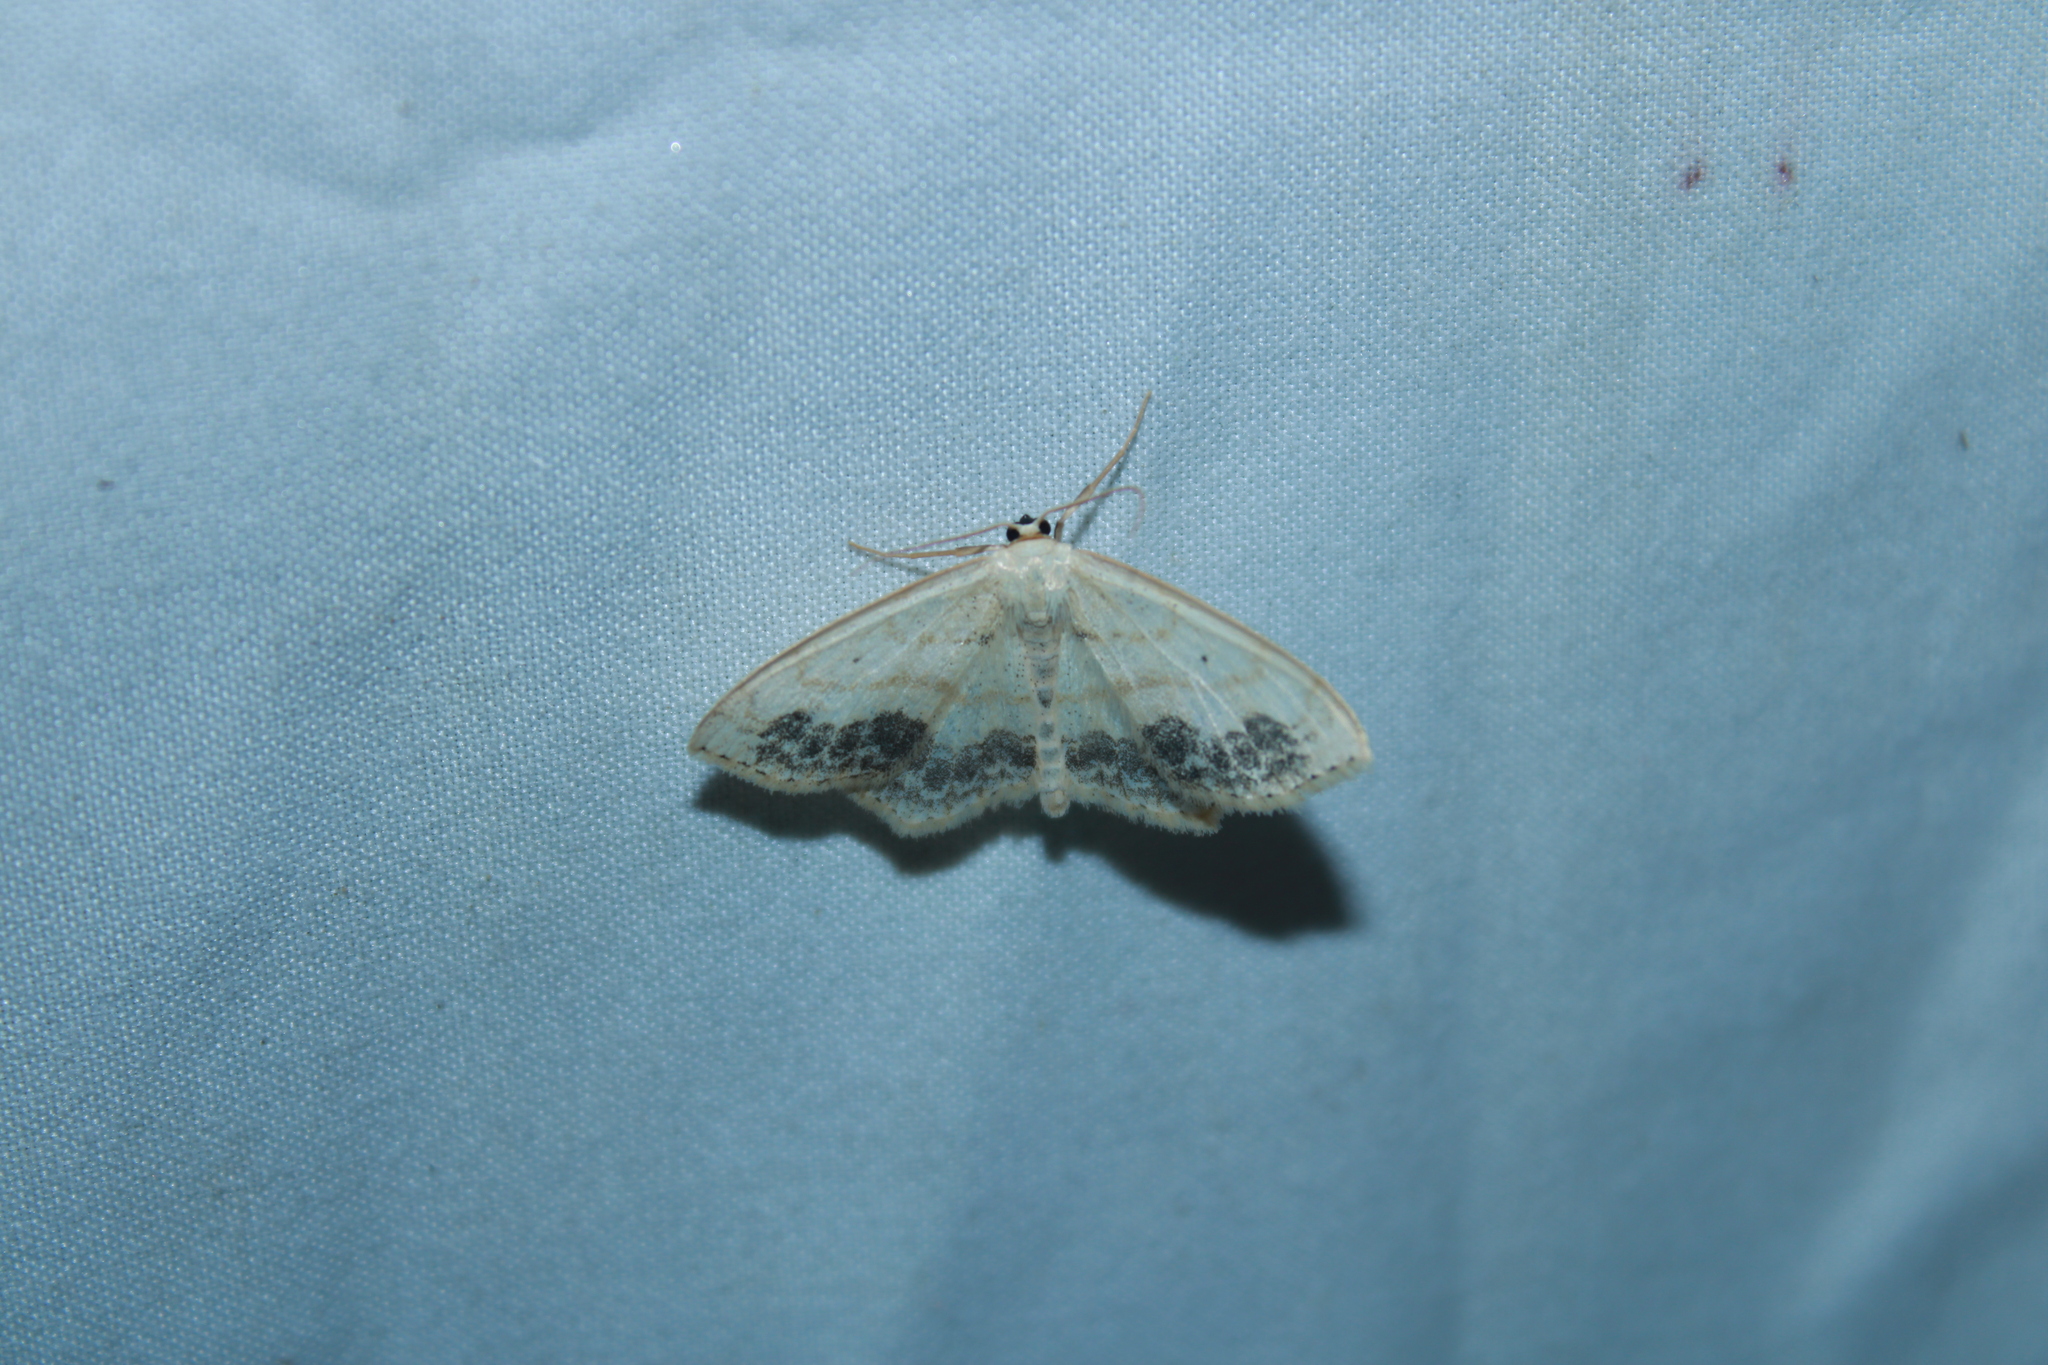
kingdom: Animalia
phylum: Arthropoda
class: Insecta
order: Lepidoptera
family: Geometridae
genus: Scopula
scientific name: Scopula limboundata
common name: Large lace border
